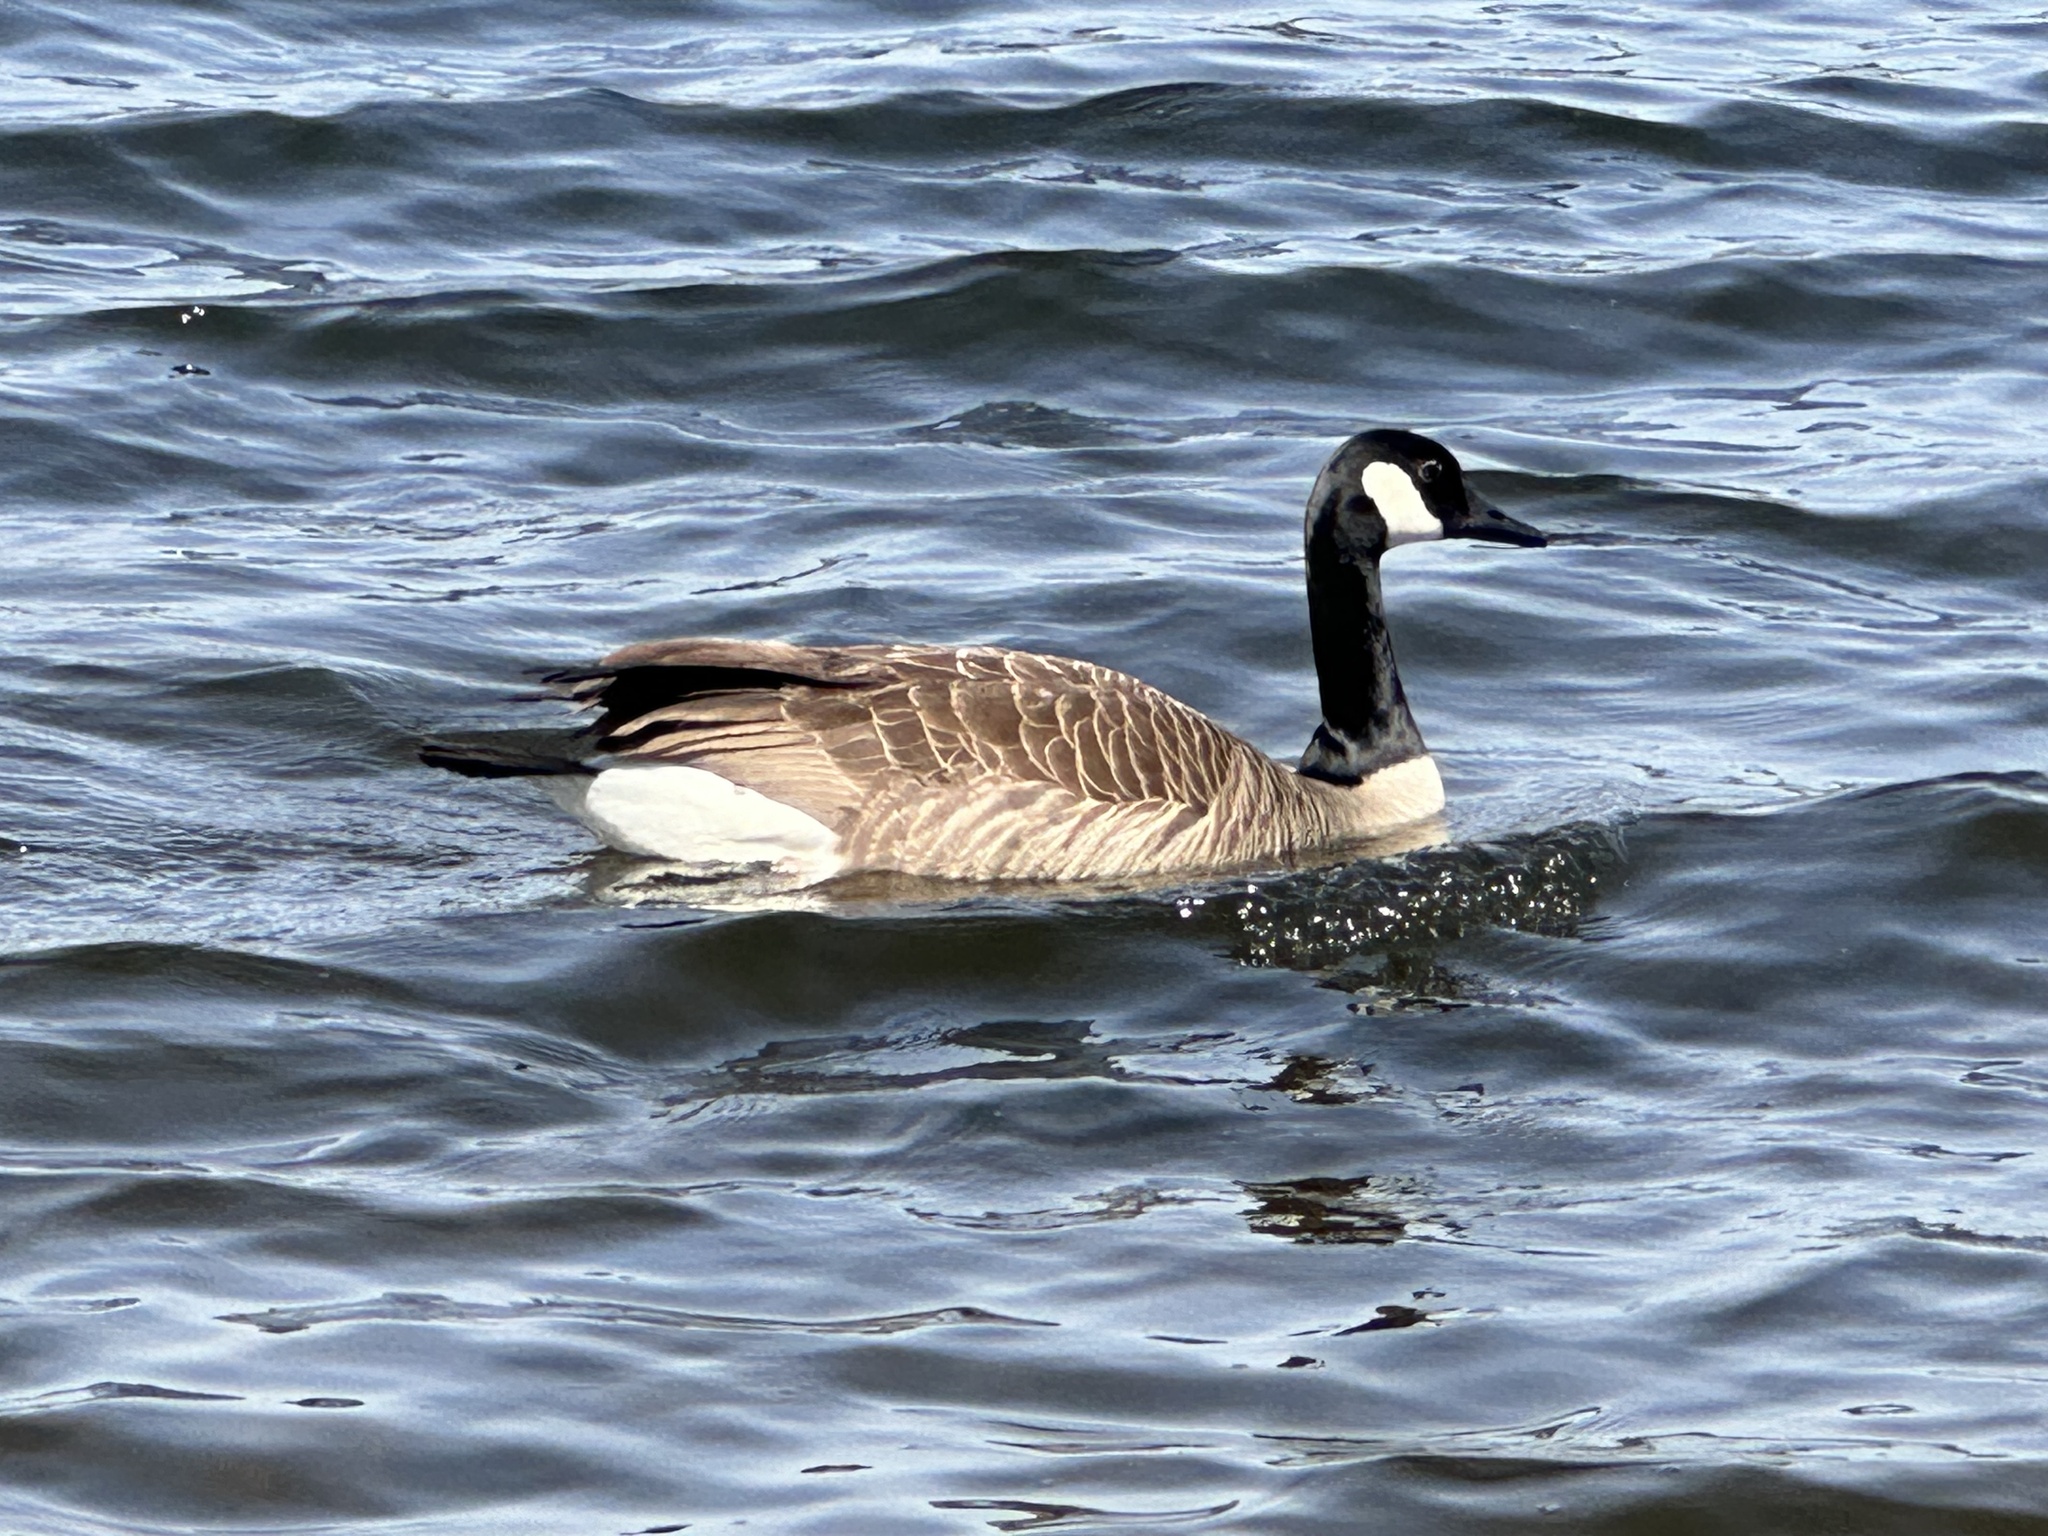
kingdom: Animalia
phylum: Chordata
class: Aves
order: Anseriformes
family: Anatidae
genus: Branta
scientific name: Branta canadensis
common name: Canada goose
